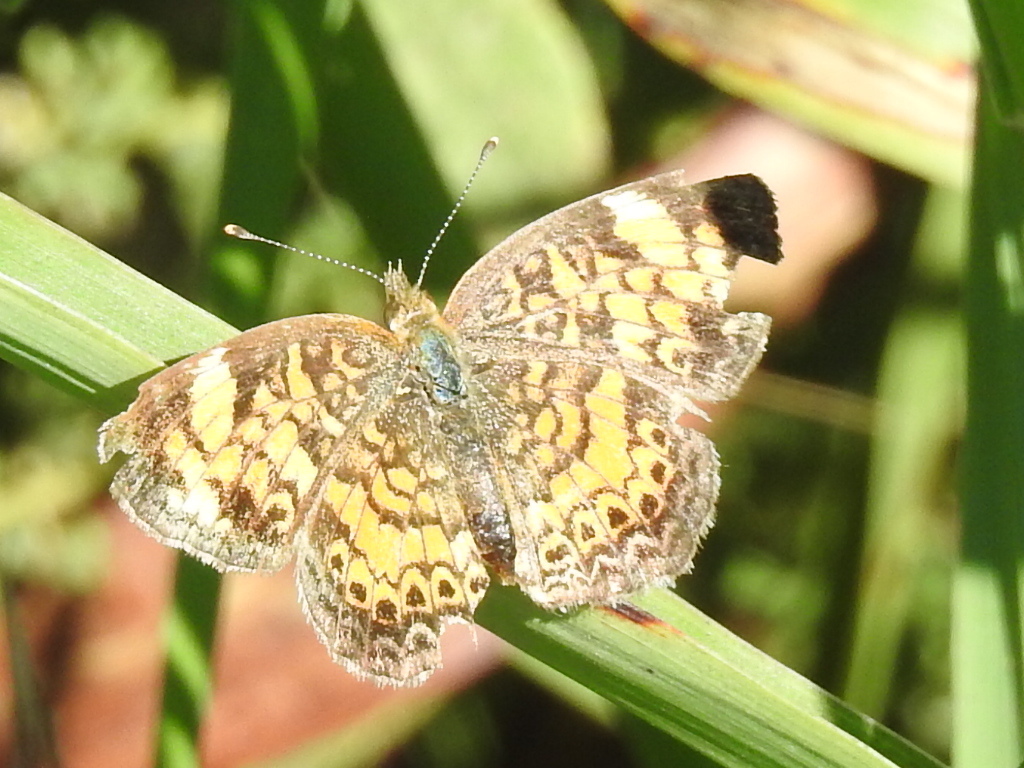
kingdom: Animalia
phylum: Arthropoda
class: Insecta
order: Lepidoptera
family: Nymphalidae
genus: Phyciodes
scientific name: Phyciodes tharos
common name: Pearl crescent
